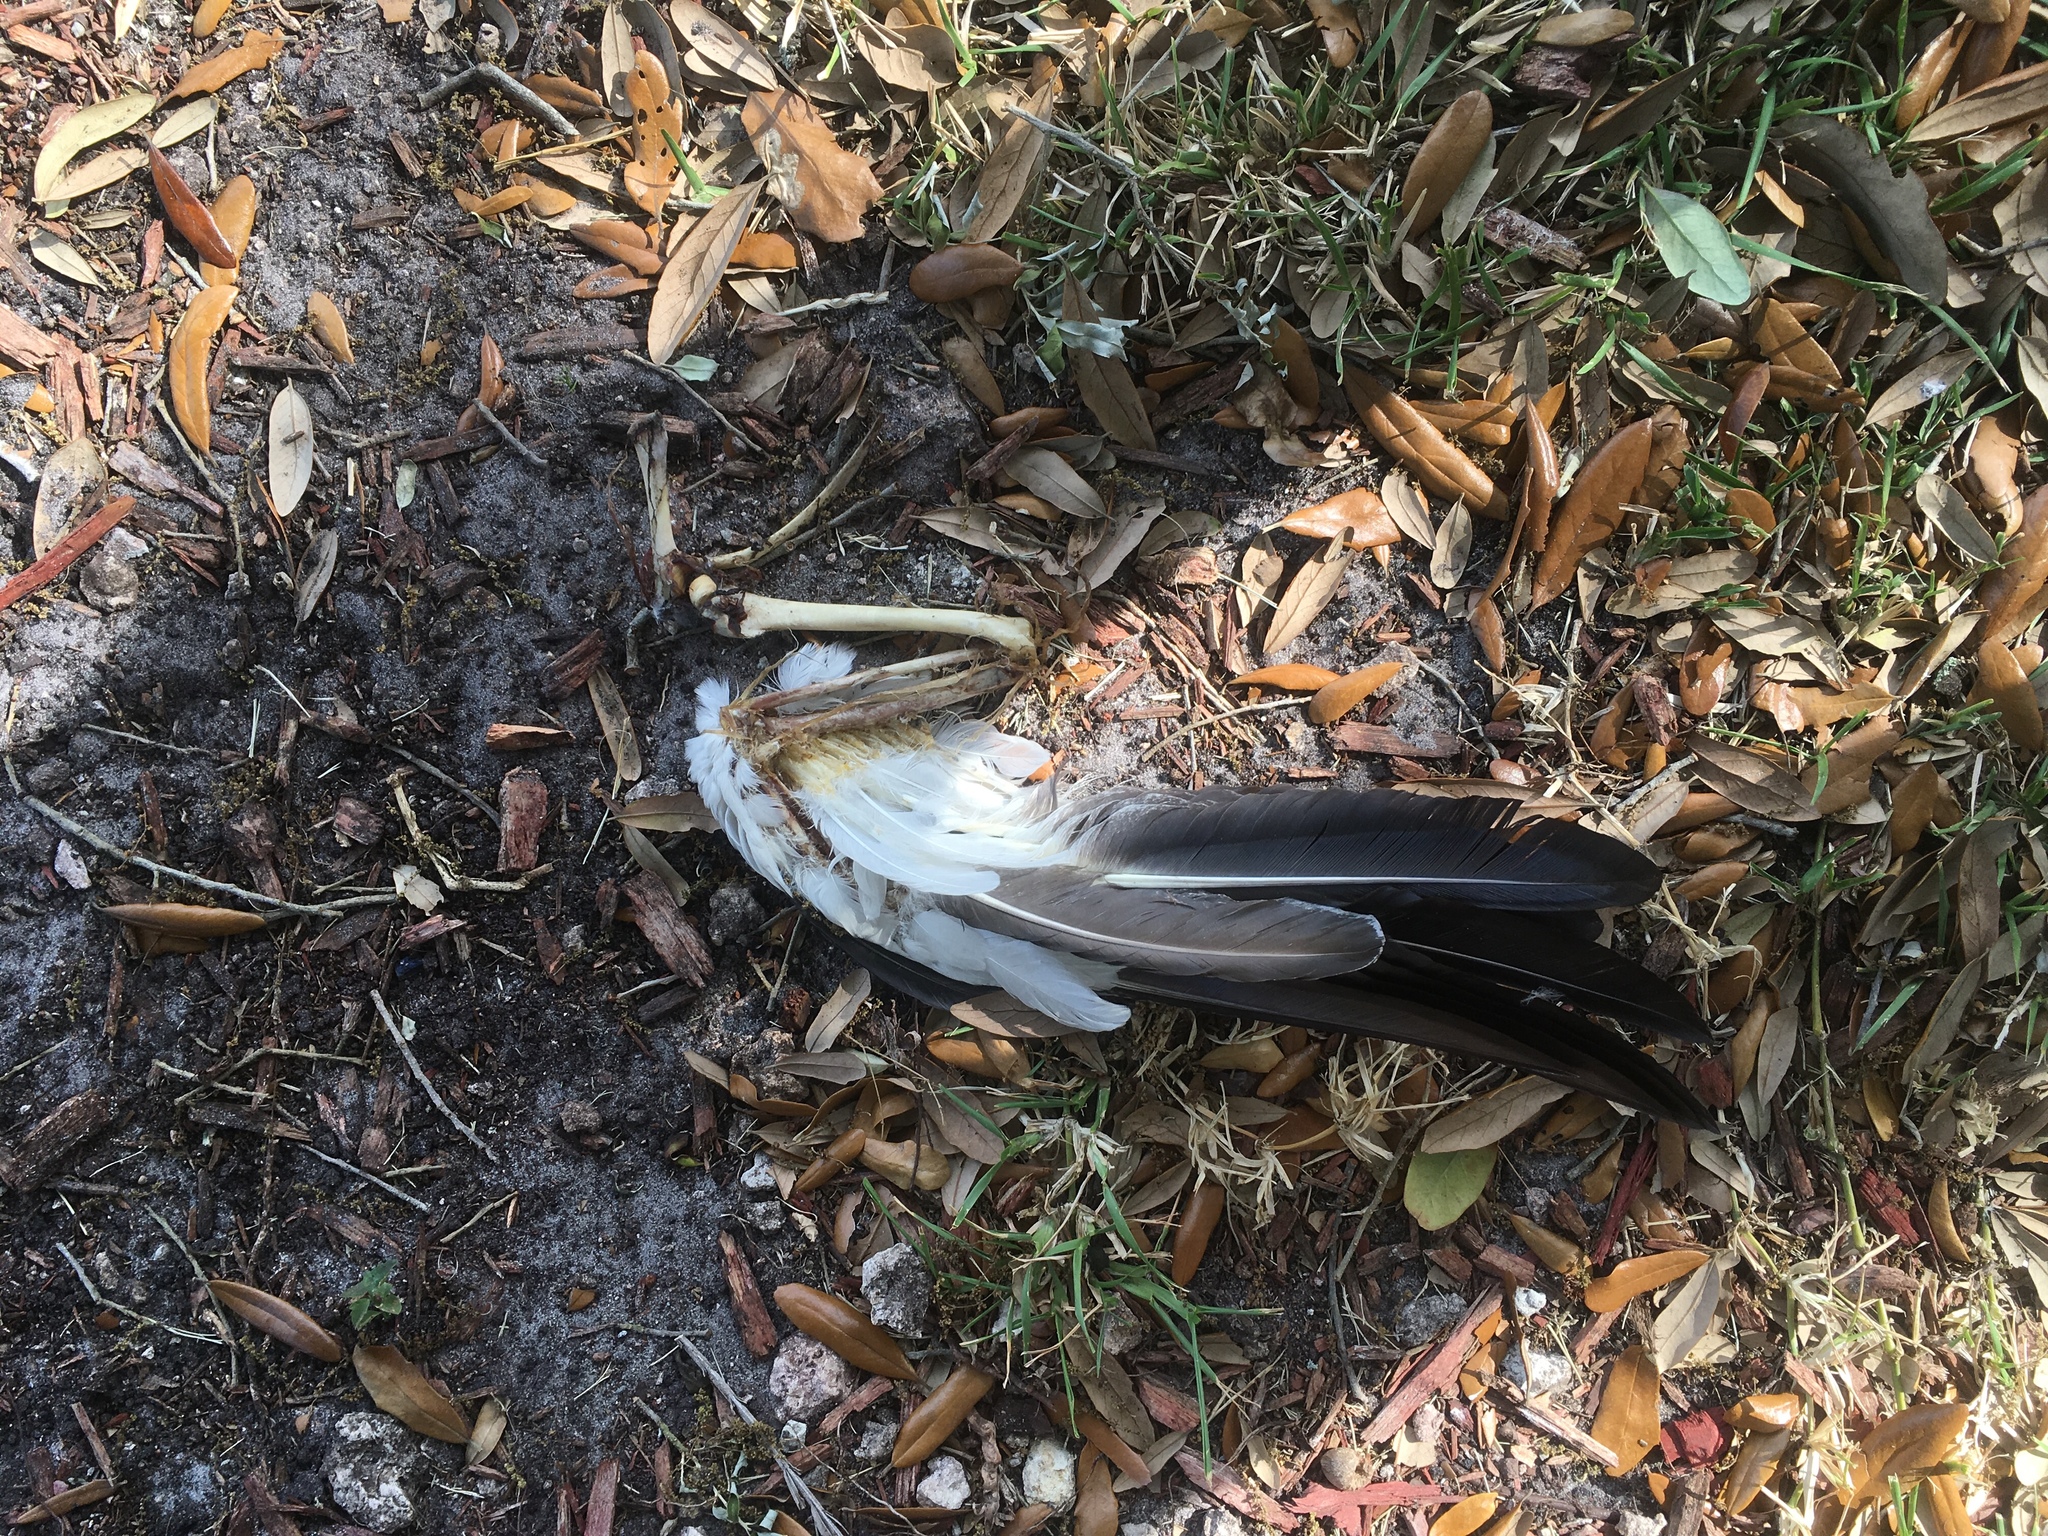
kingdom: Animalia
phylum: Chordata
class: Aves
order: Anseriformes
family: Anatidae
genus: Cairina
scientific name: Cairina moschata
